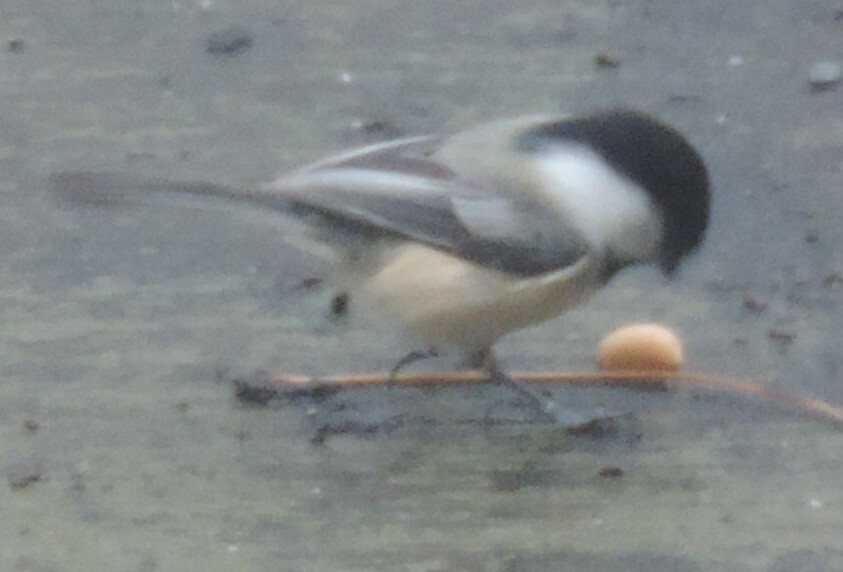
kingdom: Animalia
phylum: Chordata
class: Aves
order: Passeriformes
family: Paridae
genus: Poecile
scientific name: Poecile atricapillus
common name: Black-capped chickadee
